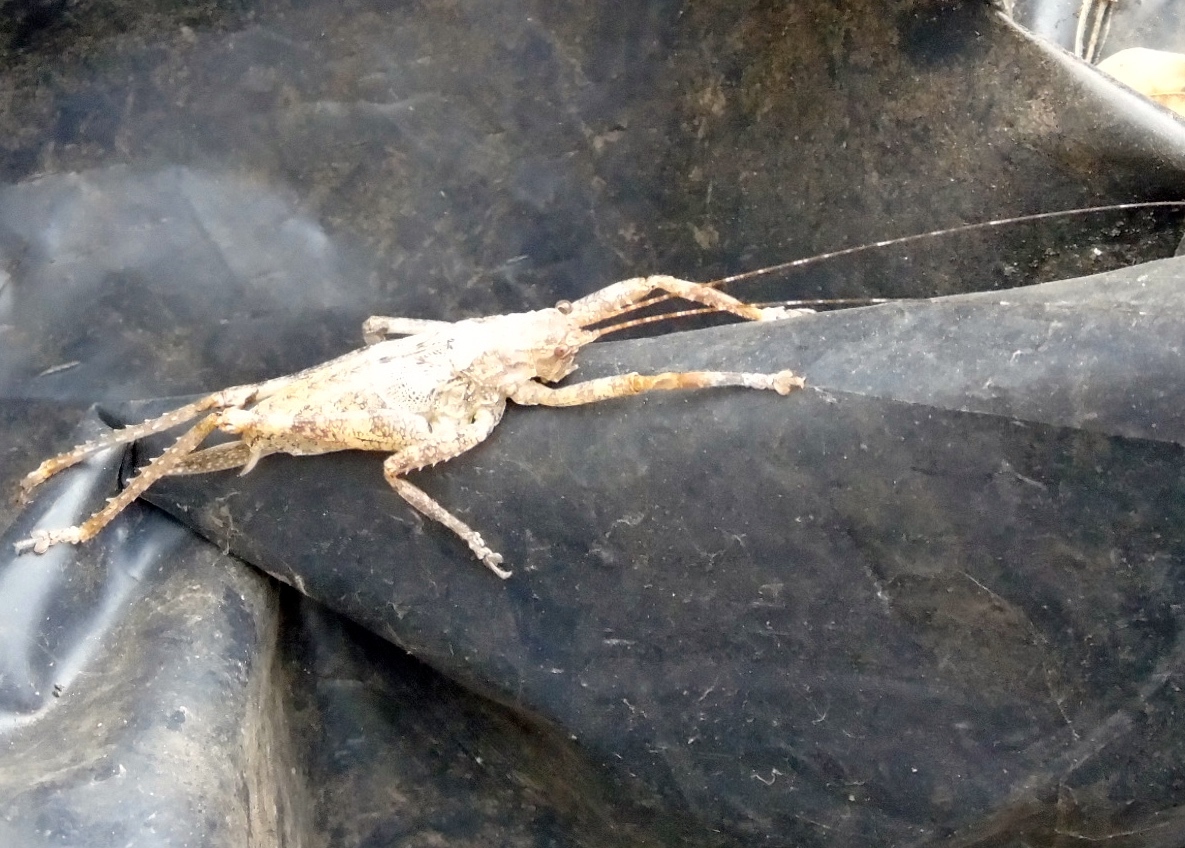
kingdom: Animalia
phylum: Arthropoda
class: Insecta
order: Orthoptera
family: Tettigoniidae
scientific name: Tettigoniidae
